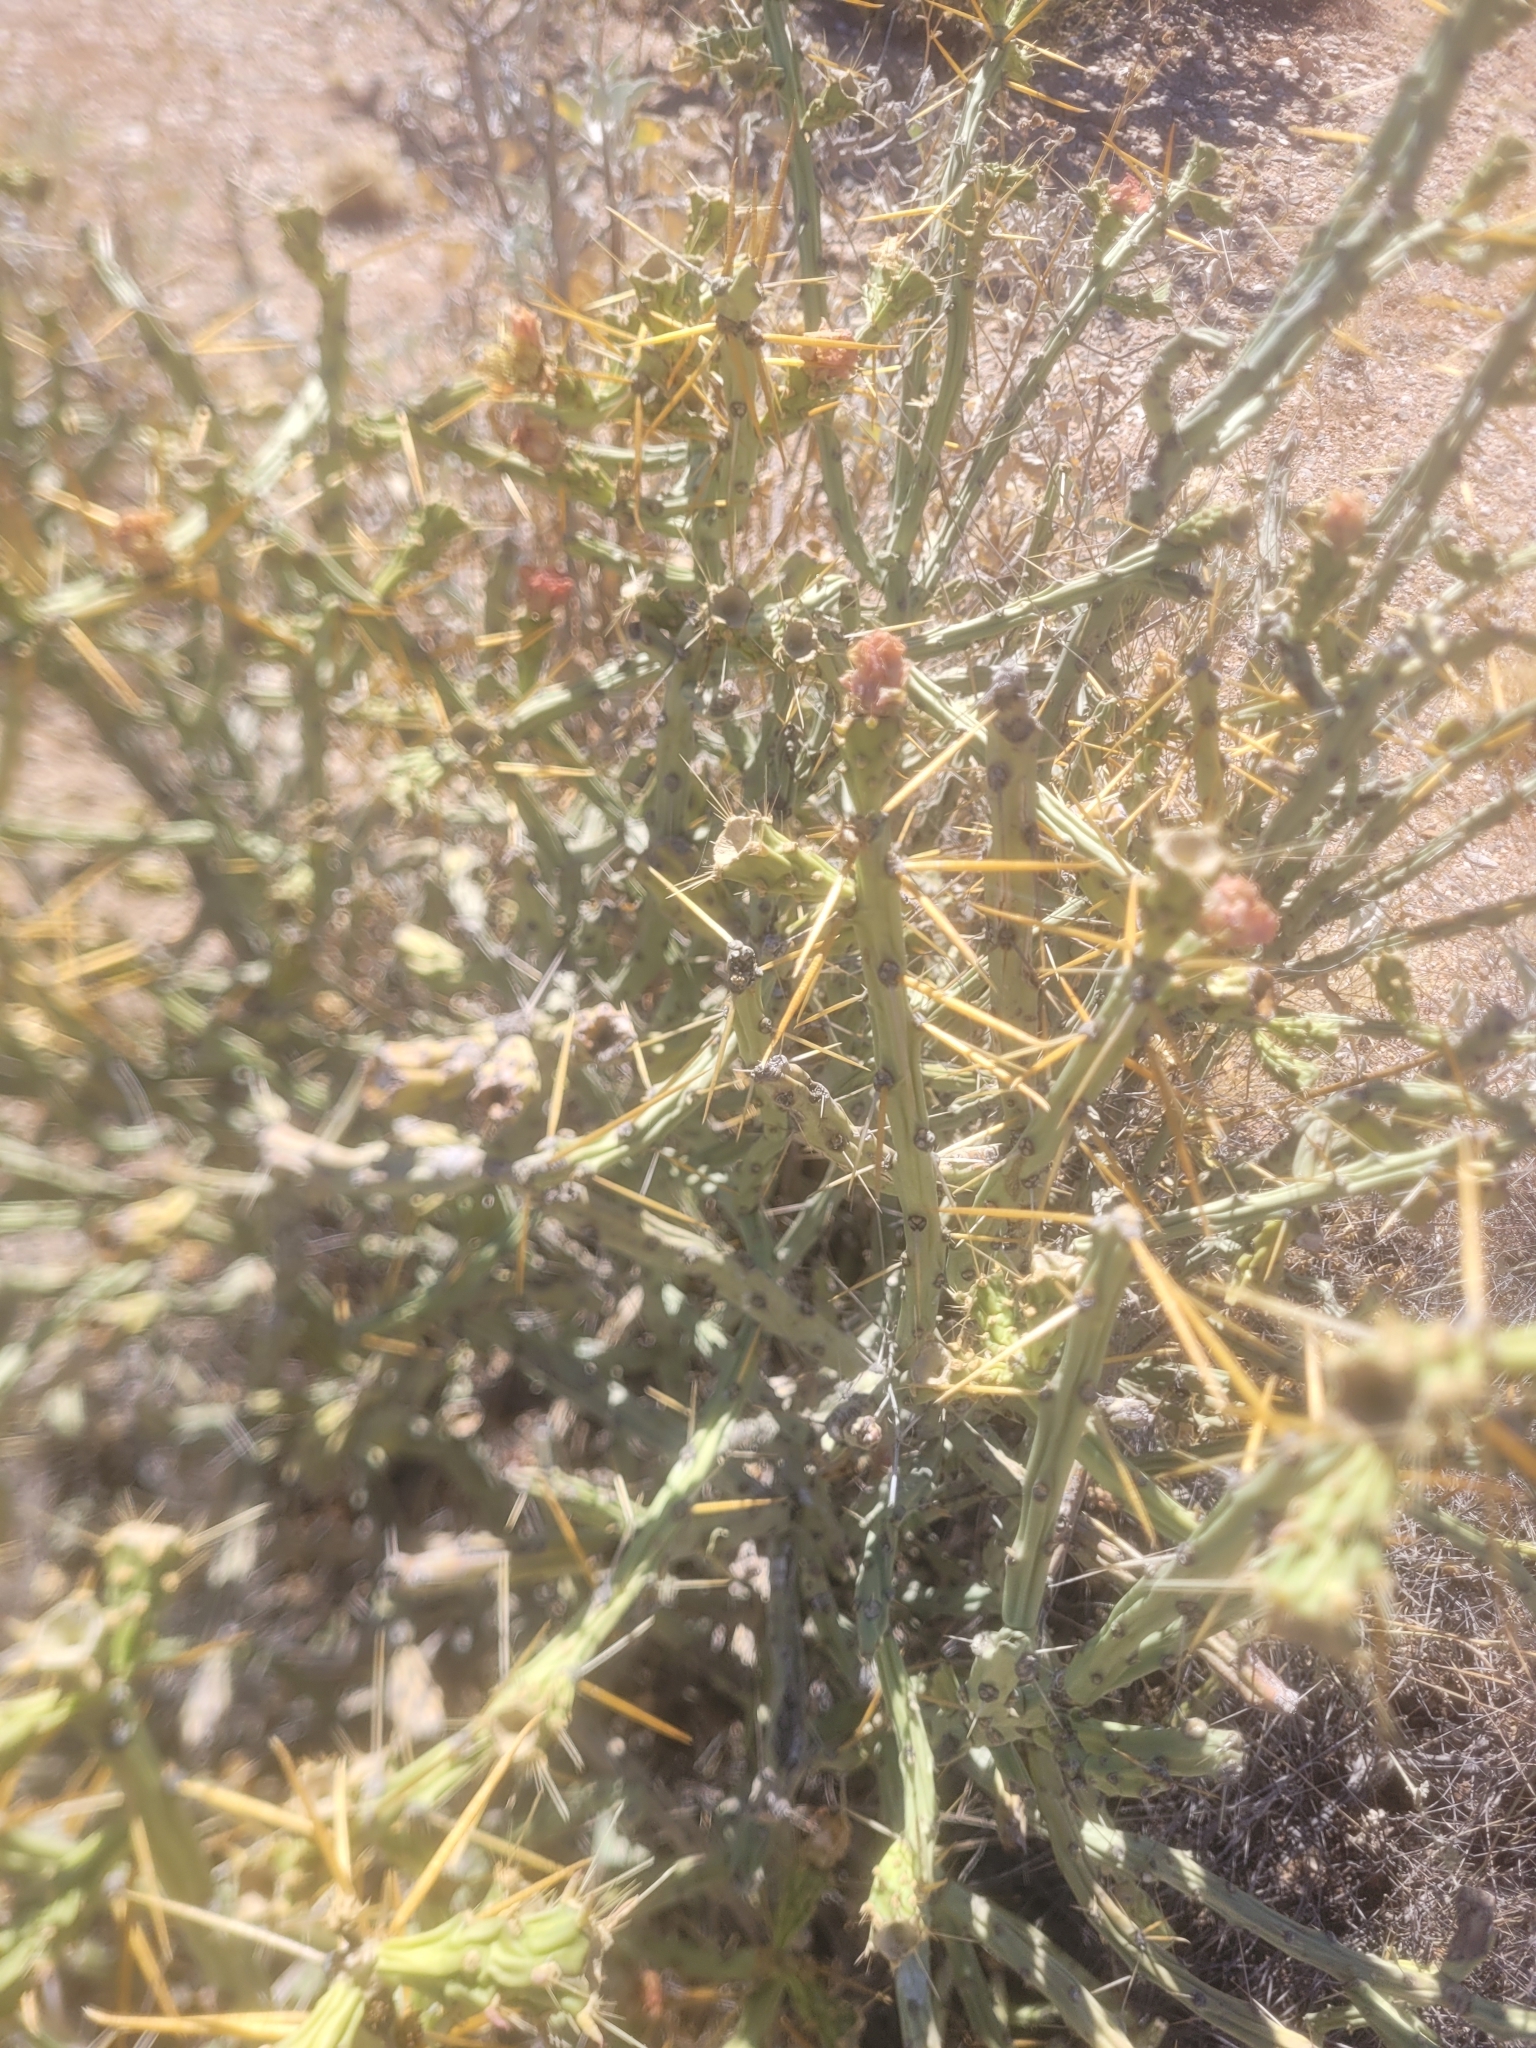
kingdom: Plantae
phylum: Tracheophyta
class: Magnoliopsida
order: Caryophyllales
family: Cactaceae
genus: Cylindropuntia
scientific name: Cylindropuntia leptocaulis
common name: Christmas cactus
